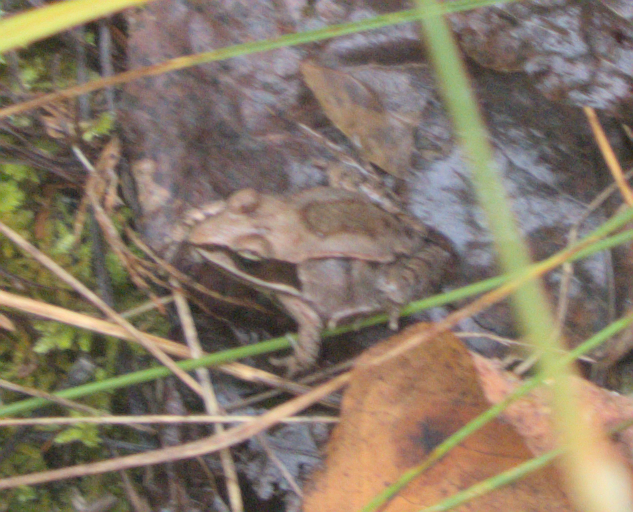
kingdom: Animalia
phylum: Chordata
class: Amphibia
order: Anura
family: Ranidae
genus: Lithobates
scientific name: Lithobates sylvaticus
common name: Wood frog
